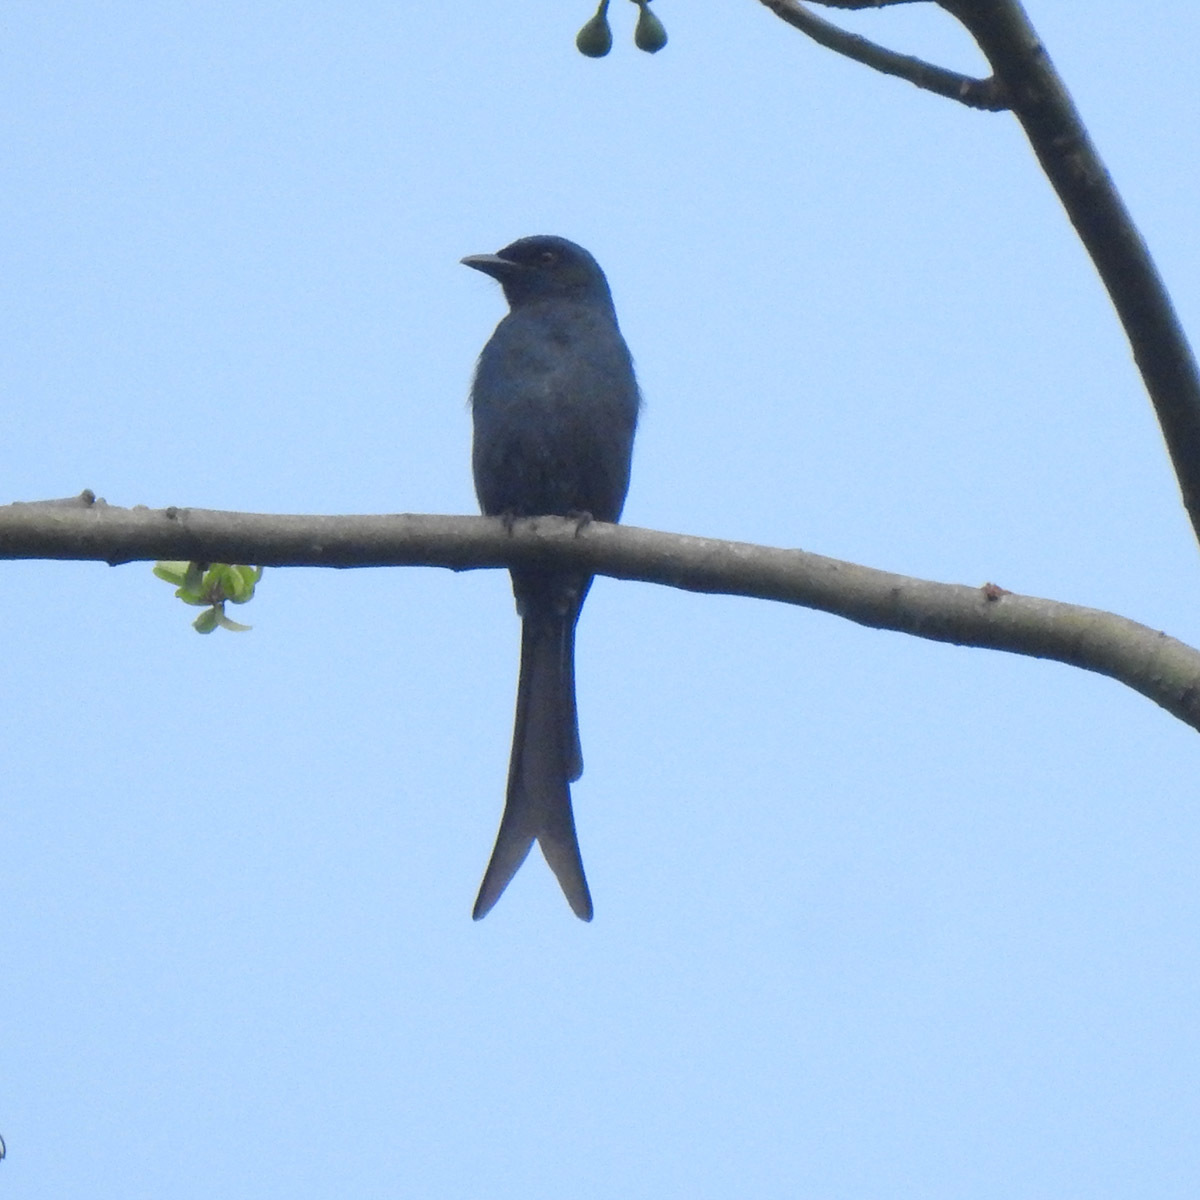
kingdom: Animalia
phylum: Chordata
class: Aves
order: Passeriformes
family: Dicruridae
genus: Dicrurus
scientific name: Dicrurus leucophaeus
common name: Ashy drongo
